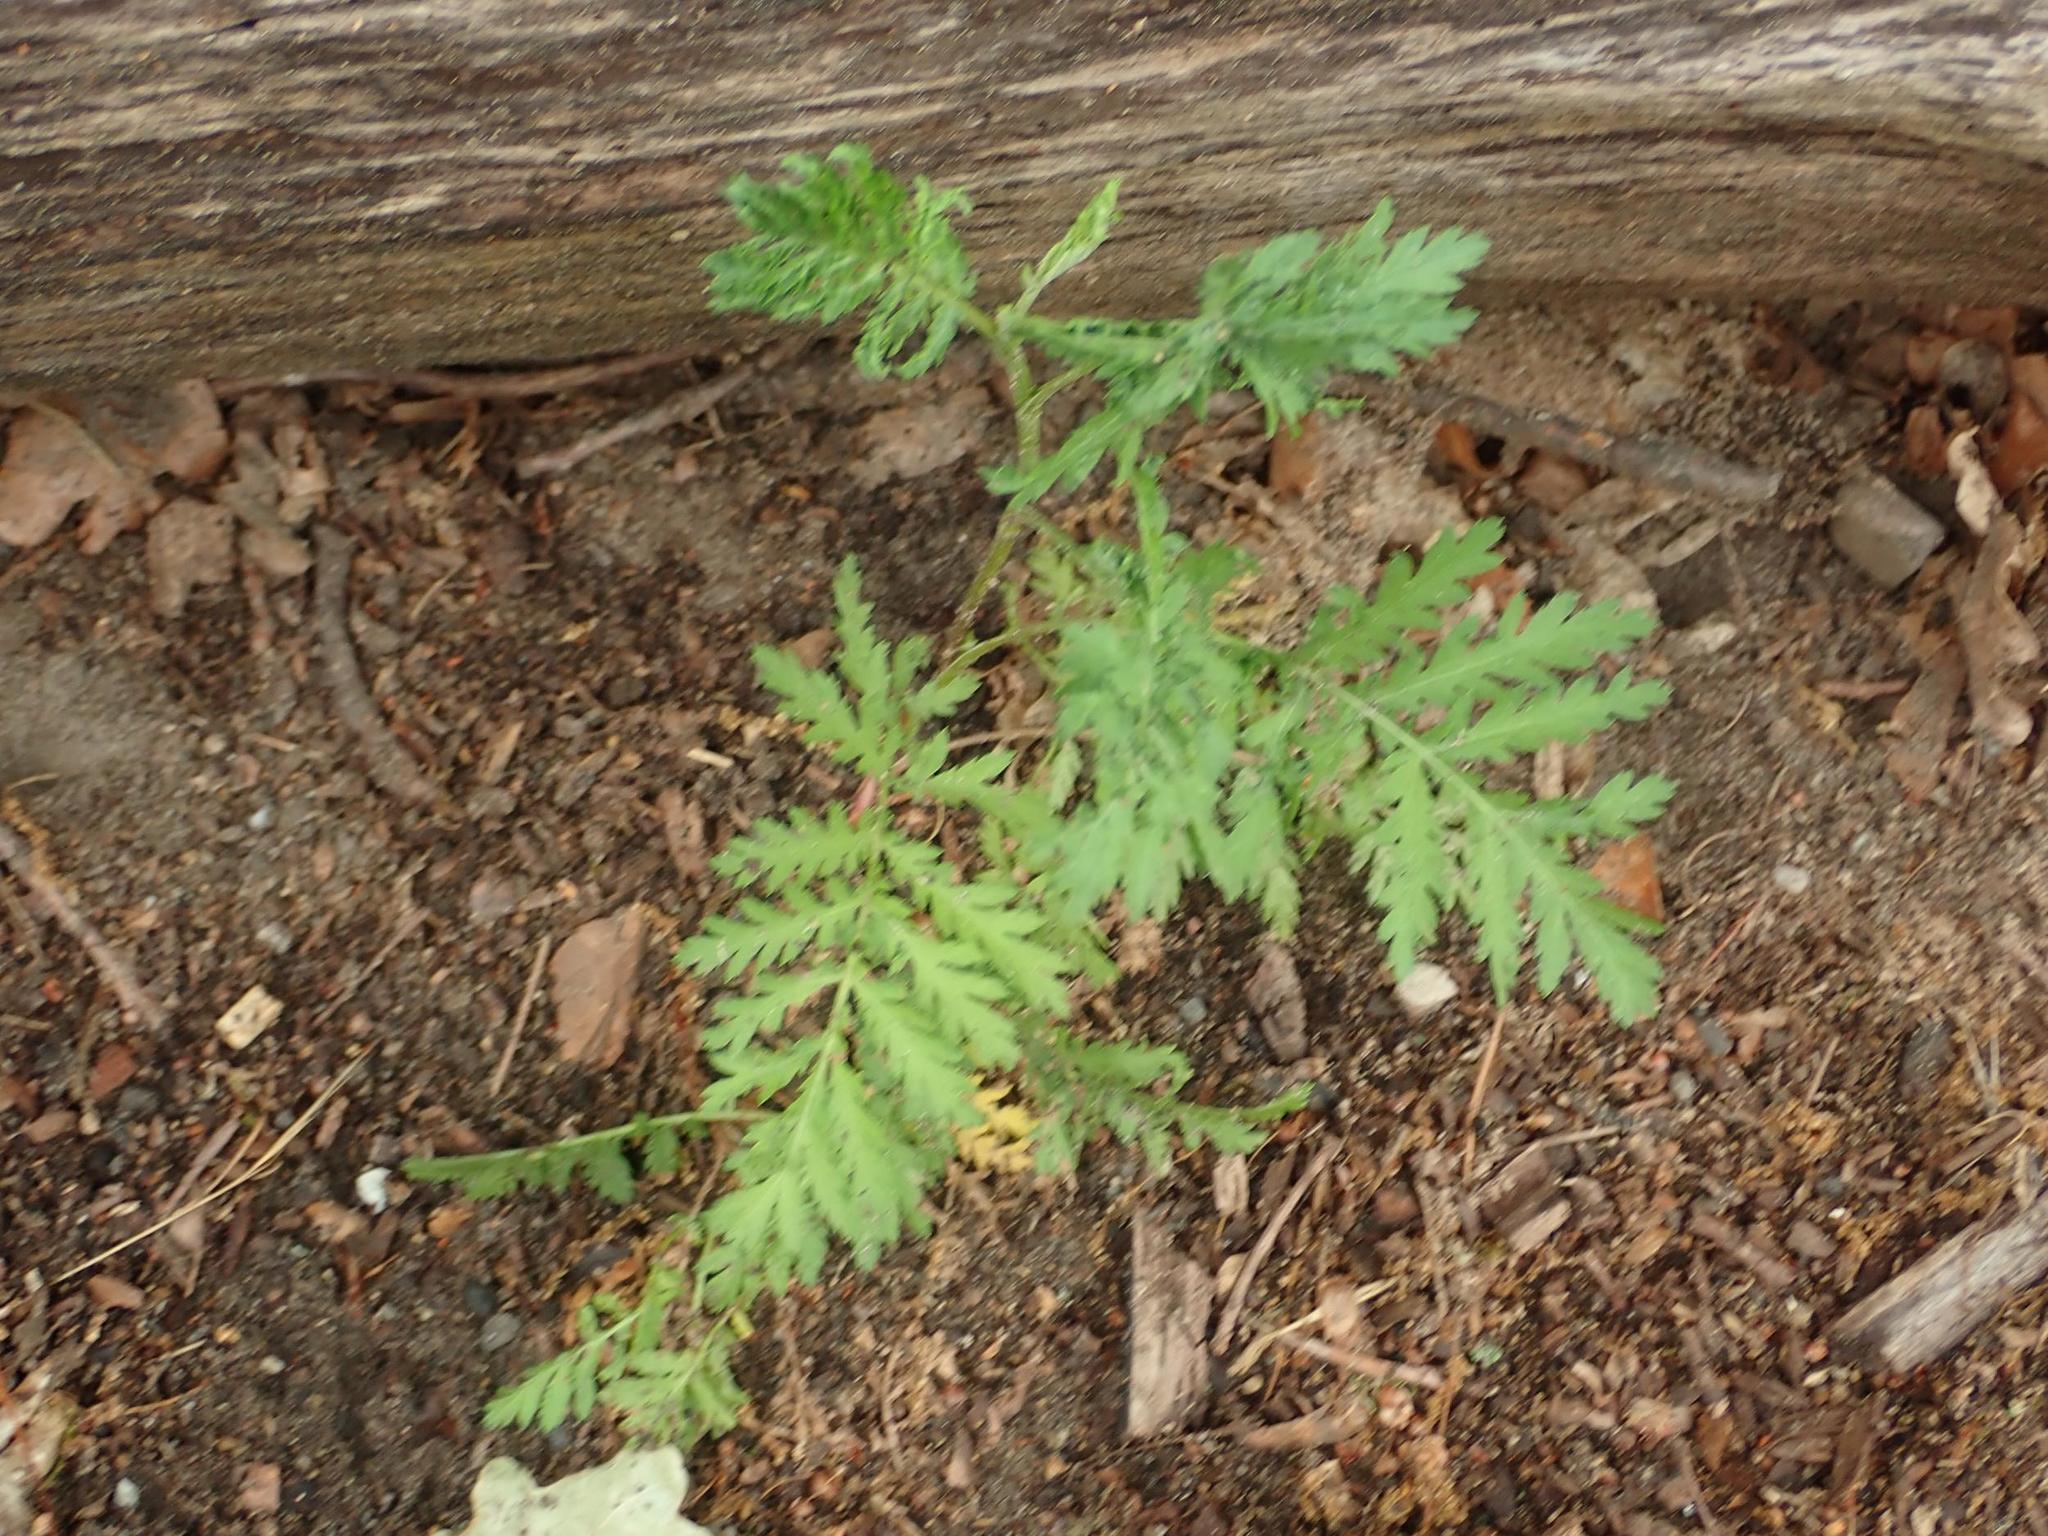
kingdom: Plantae
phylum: Tracheophyta
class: Magnoliopsida
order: Asterales
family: Asteraceae
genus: Tanacetum
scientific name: Tanacetum vulgare
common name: Common tansy
